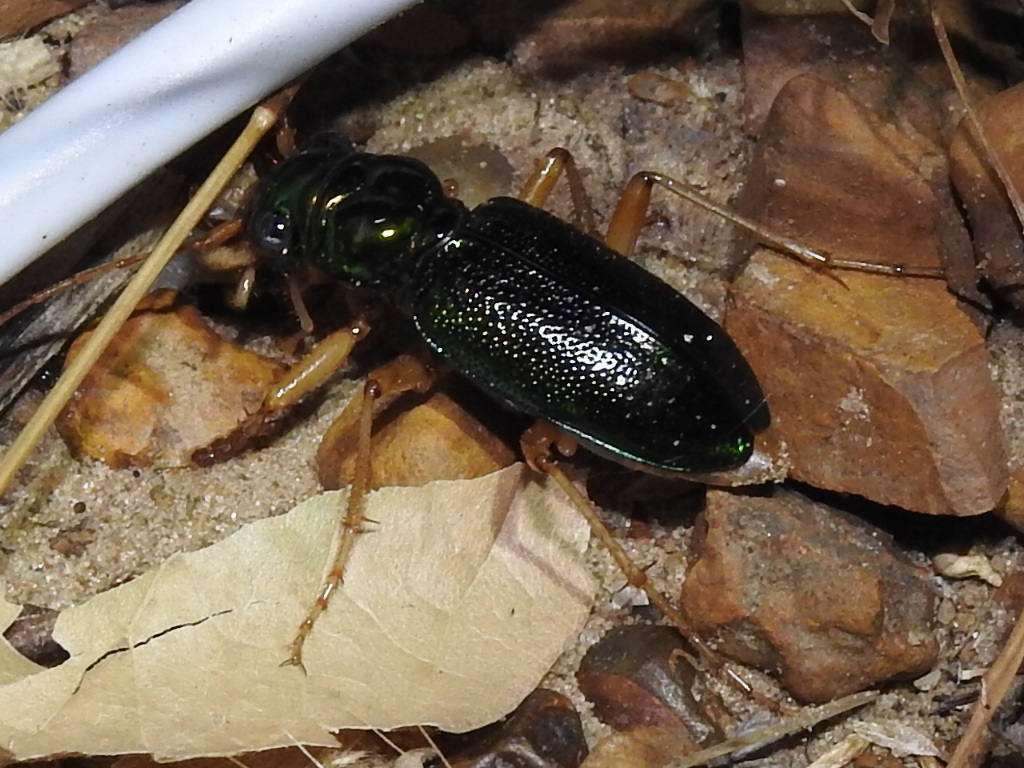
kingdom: Animalia
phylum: Arthropoda
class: Insecta
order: Coleoptera
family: Carabidae
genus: Tetracha
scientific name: Tetracha virginica
